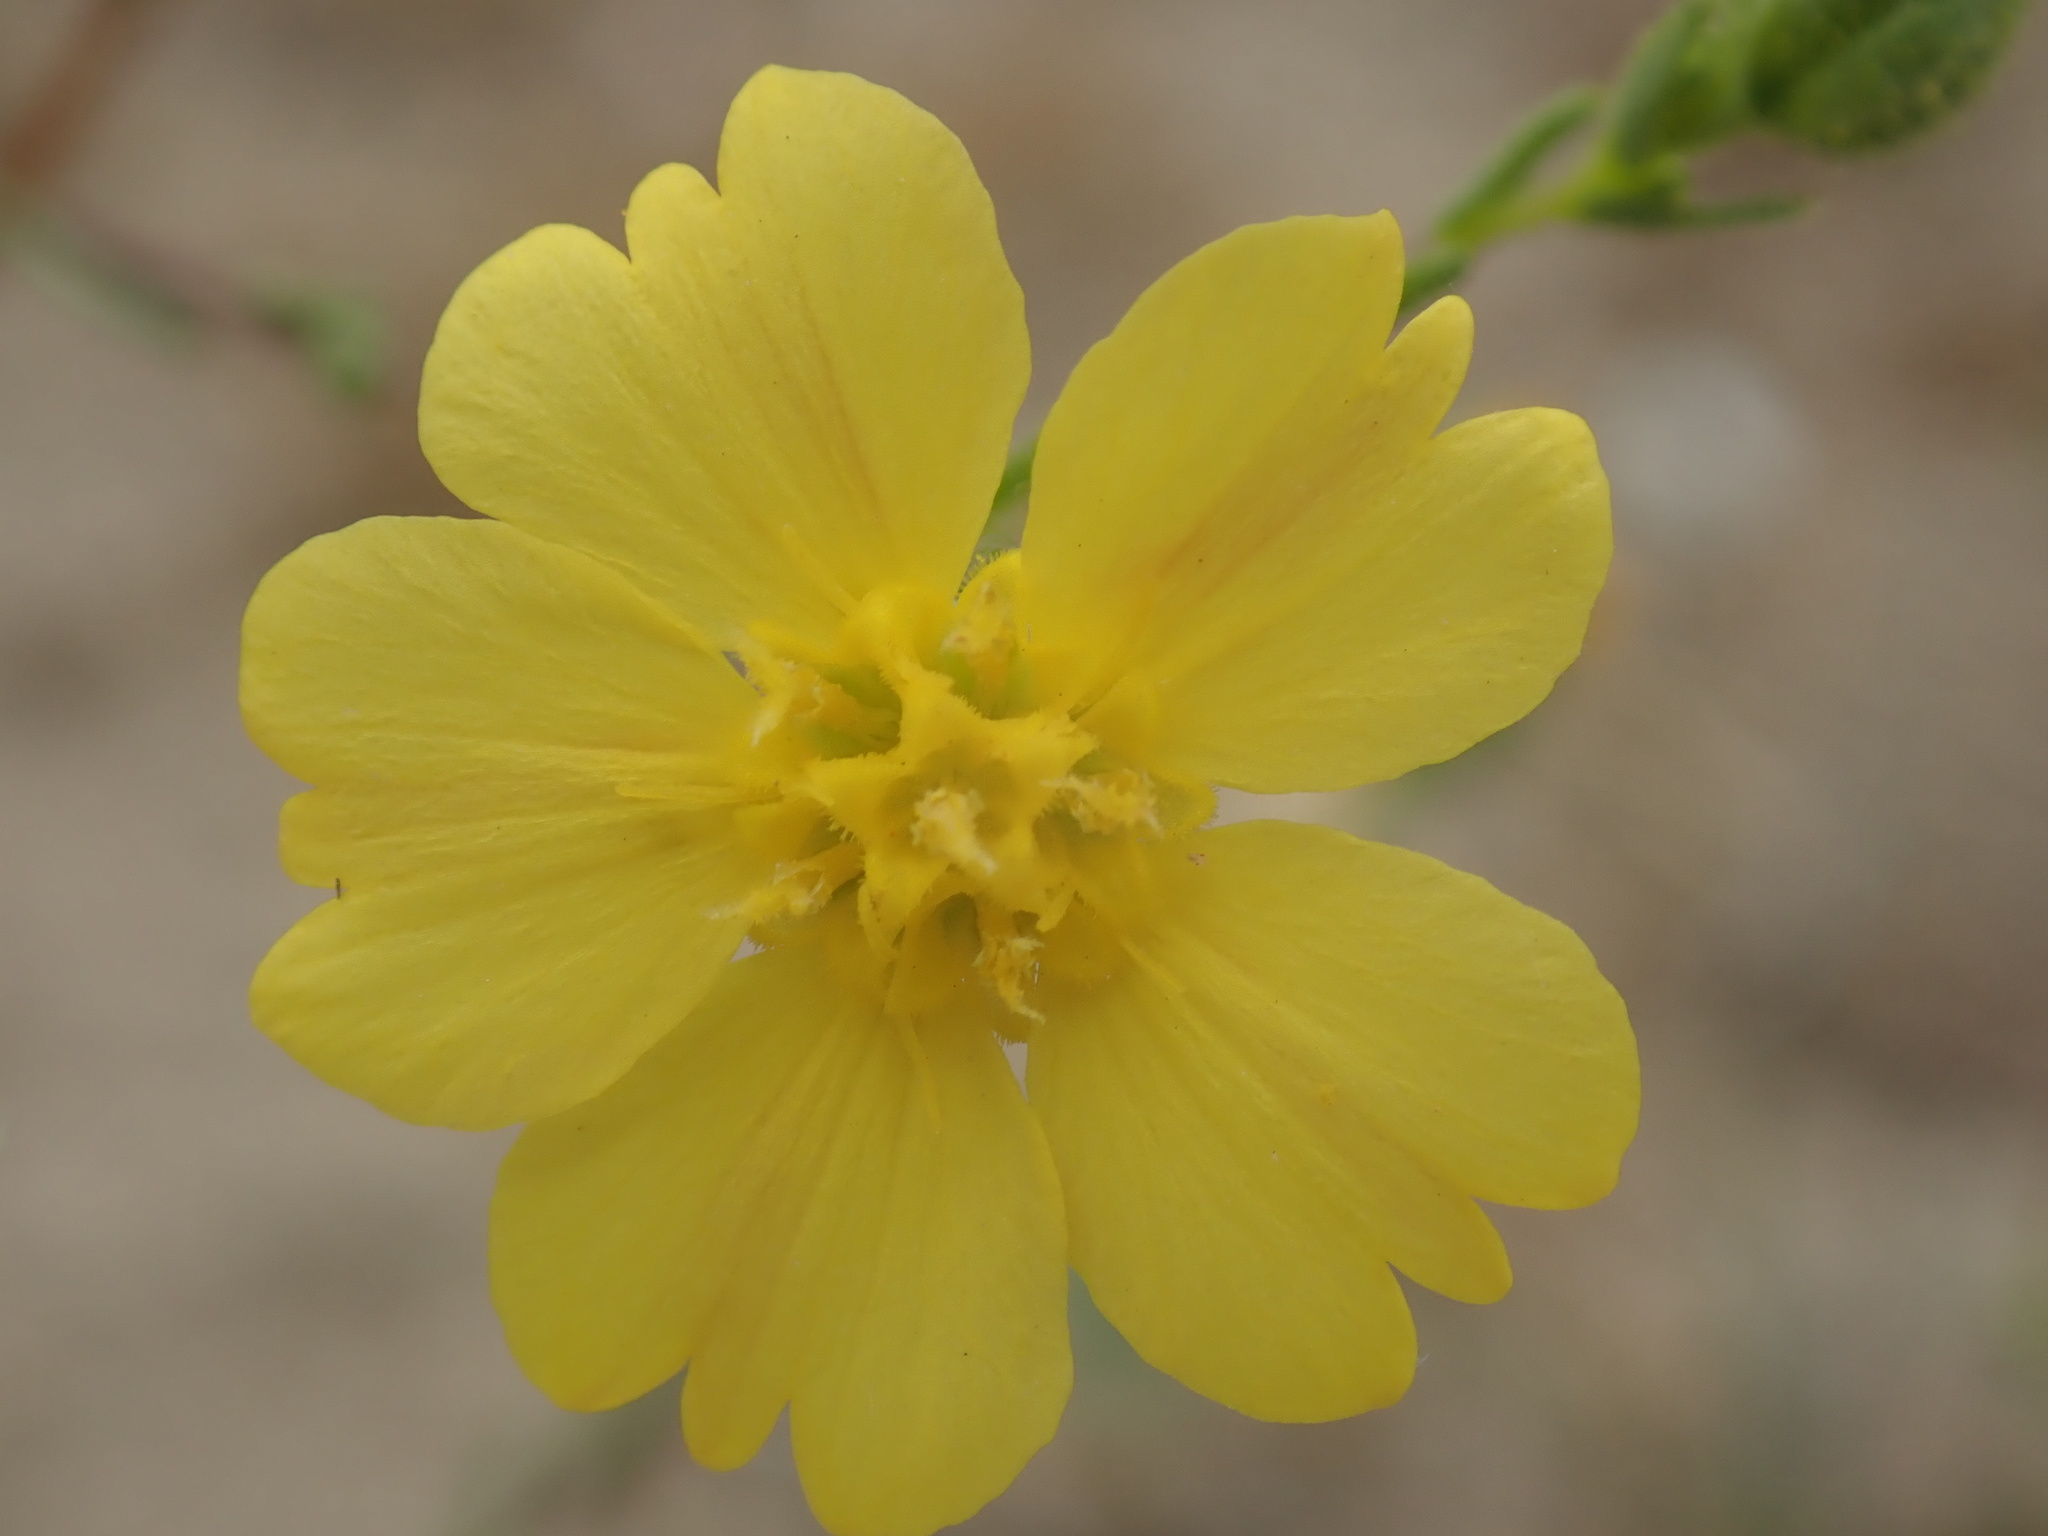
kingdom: Plantae
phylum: Tracheophyta
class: Magnoliopsida
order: Asterales
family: Asteraceae
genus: Deinandra
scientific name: Deinandra kelloggii
